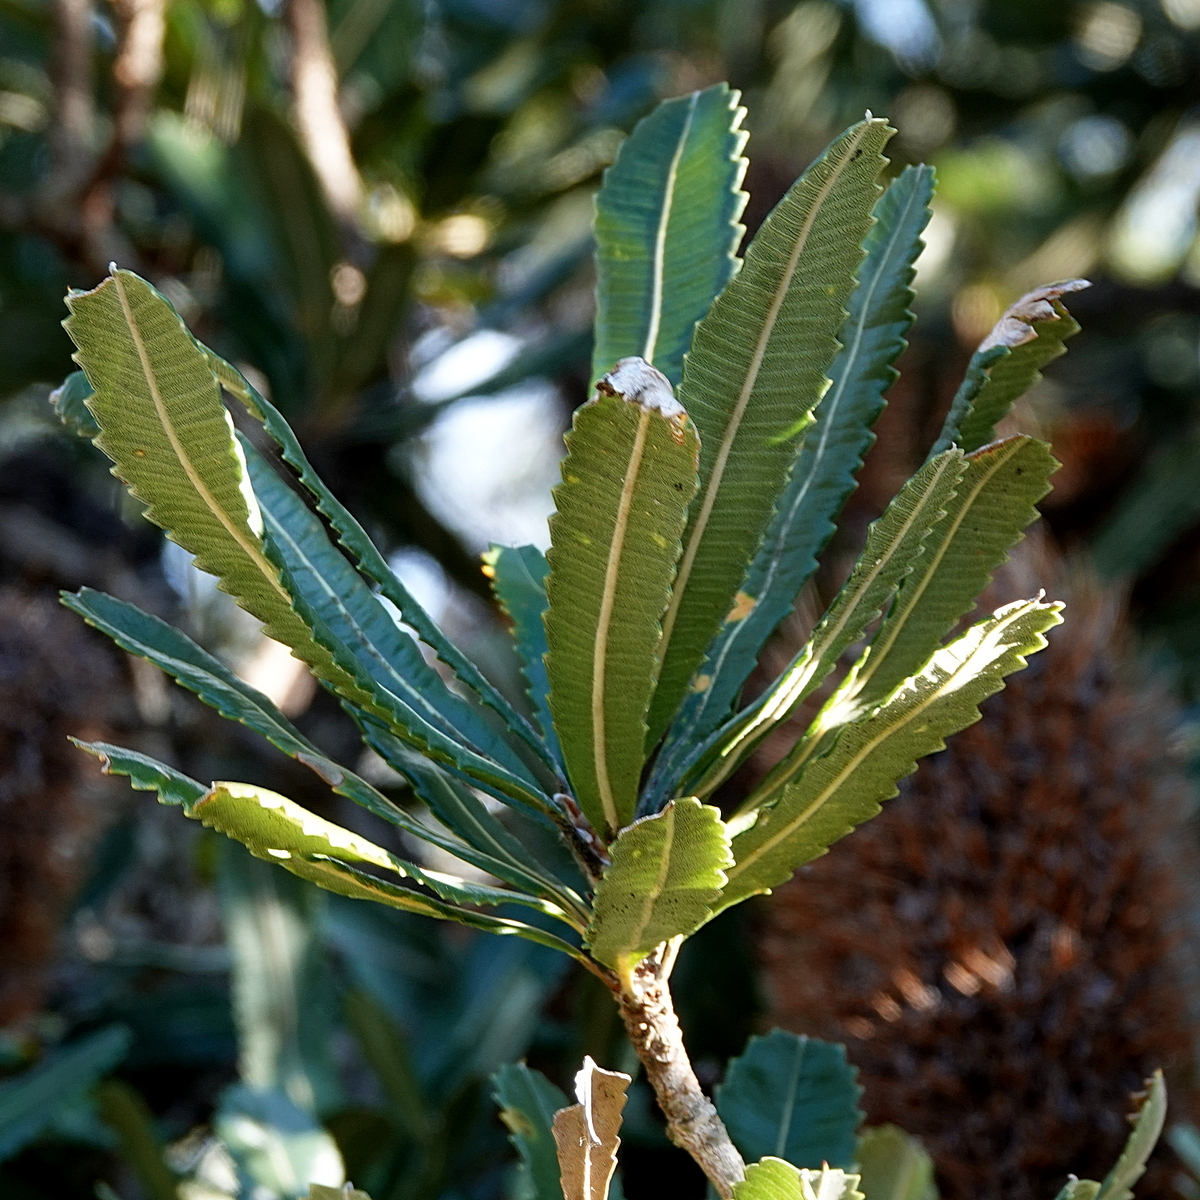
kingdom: Plantae
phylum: Tracheophyta
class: Magnoliopsida
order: Proteales
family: Proteaceae
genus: Banksia
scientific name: Banksia serrata
